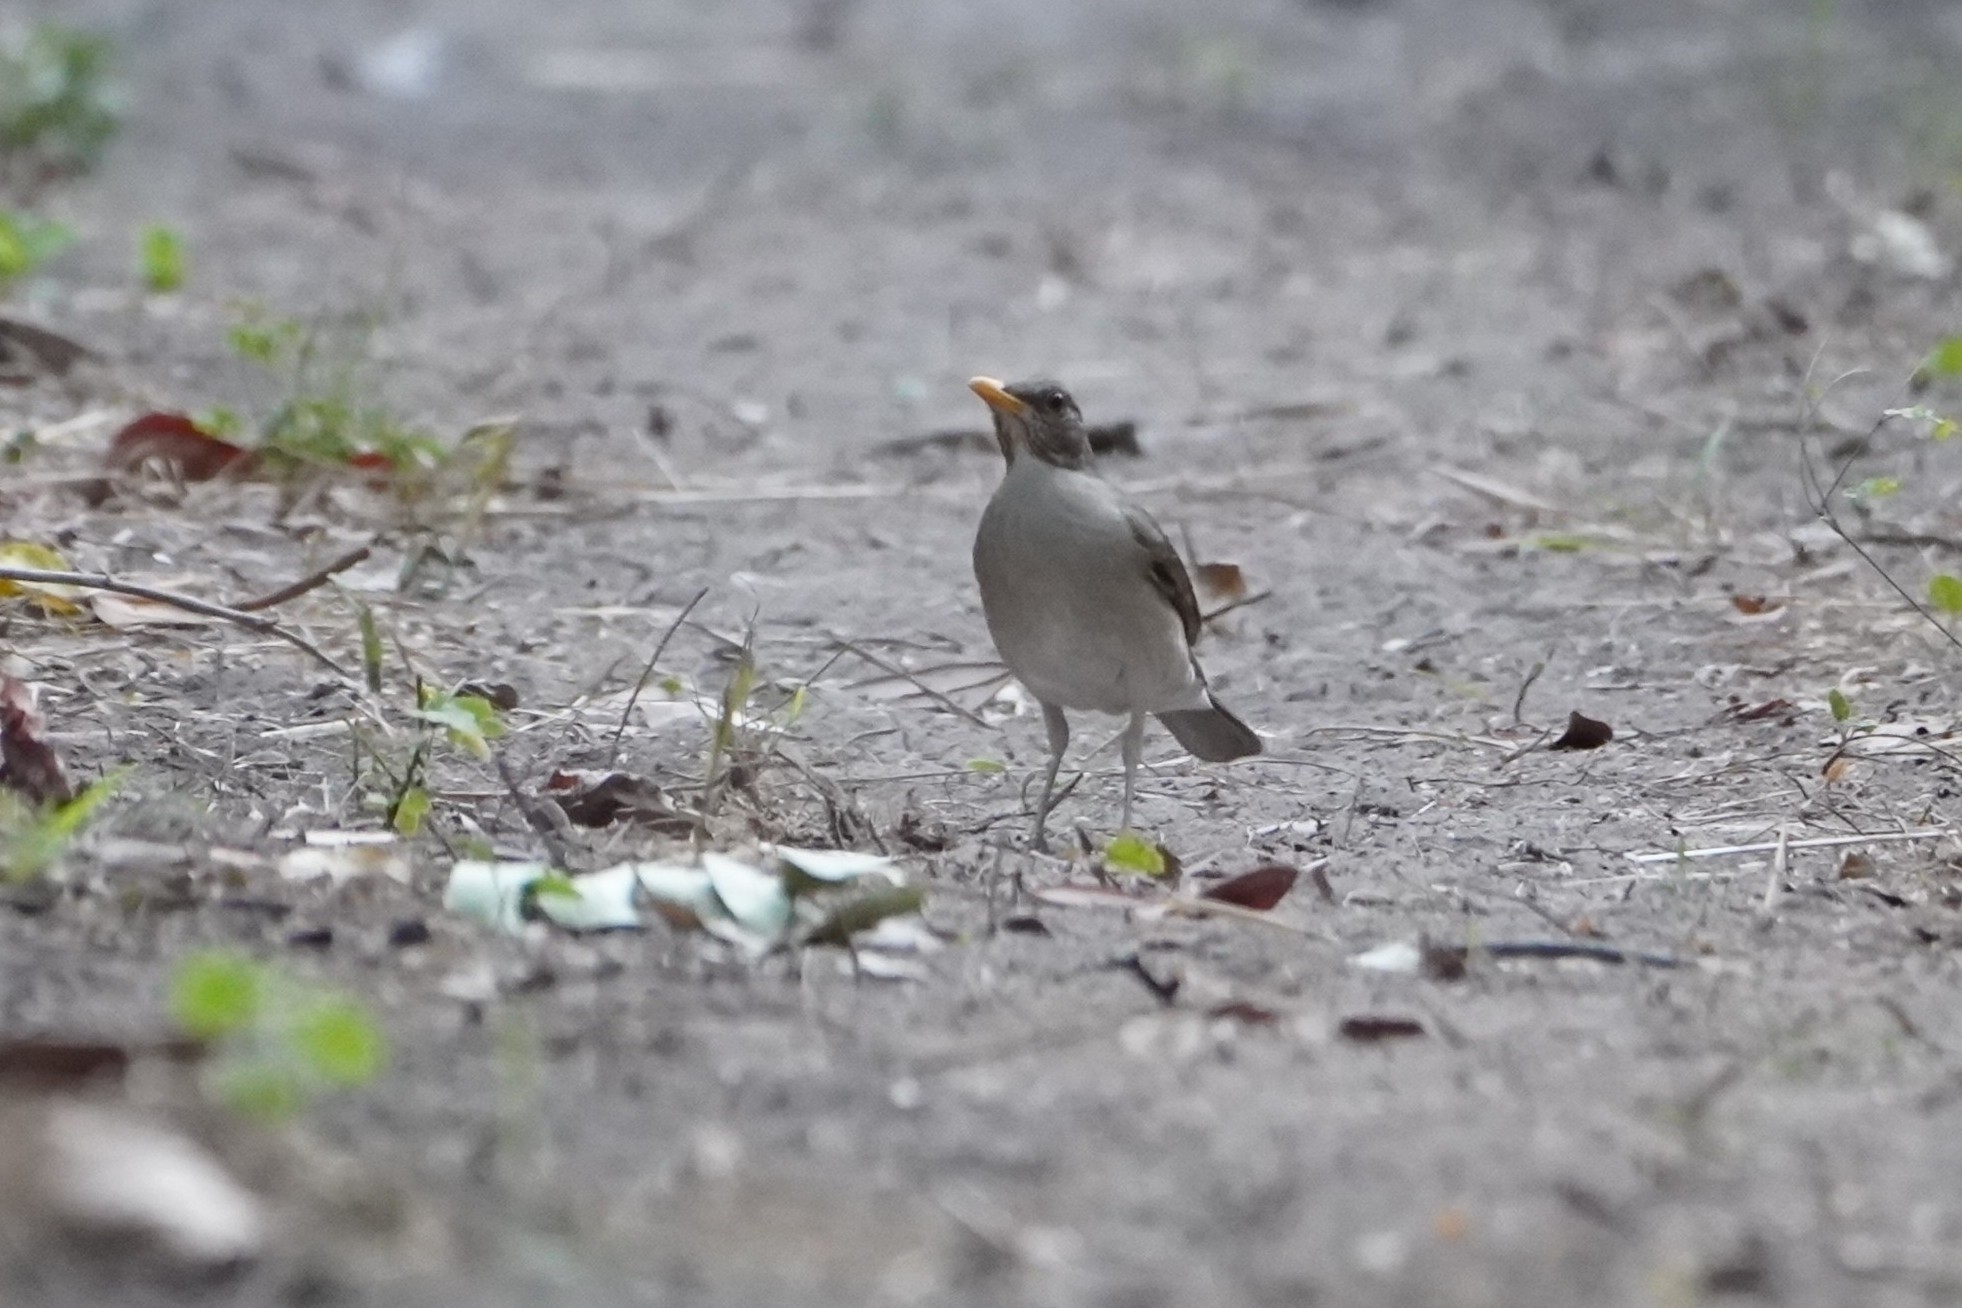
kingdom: Animalia
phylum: Chordata
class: Aves
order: Passeriformes
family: Turdidae
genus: Turdus
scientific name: Turdus pelios
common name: African thrush
